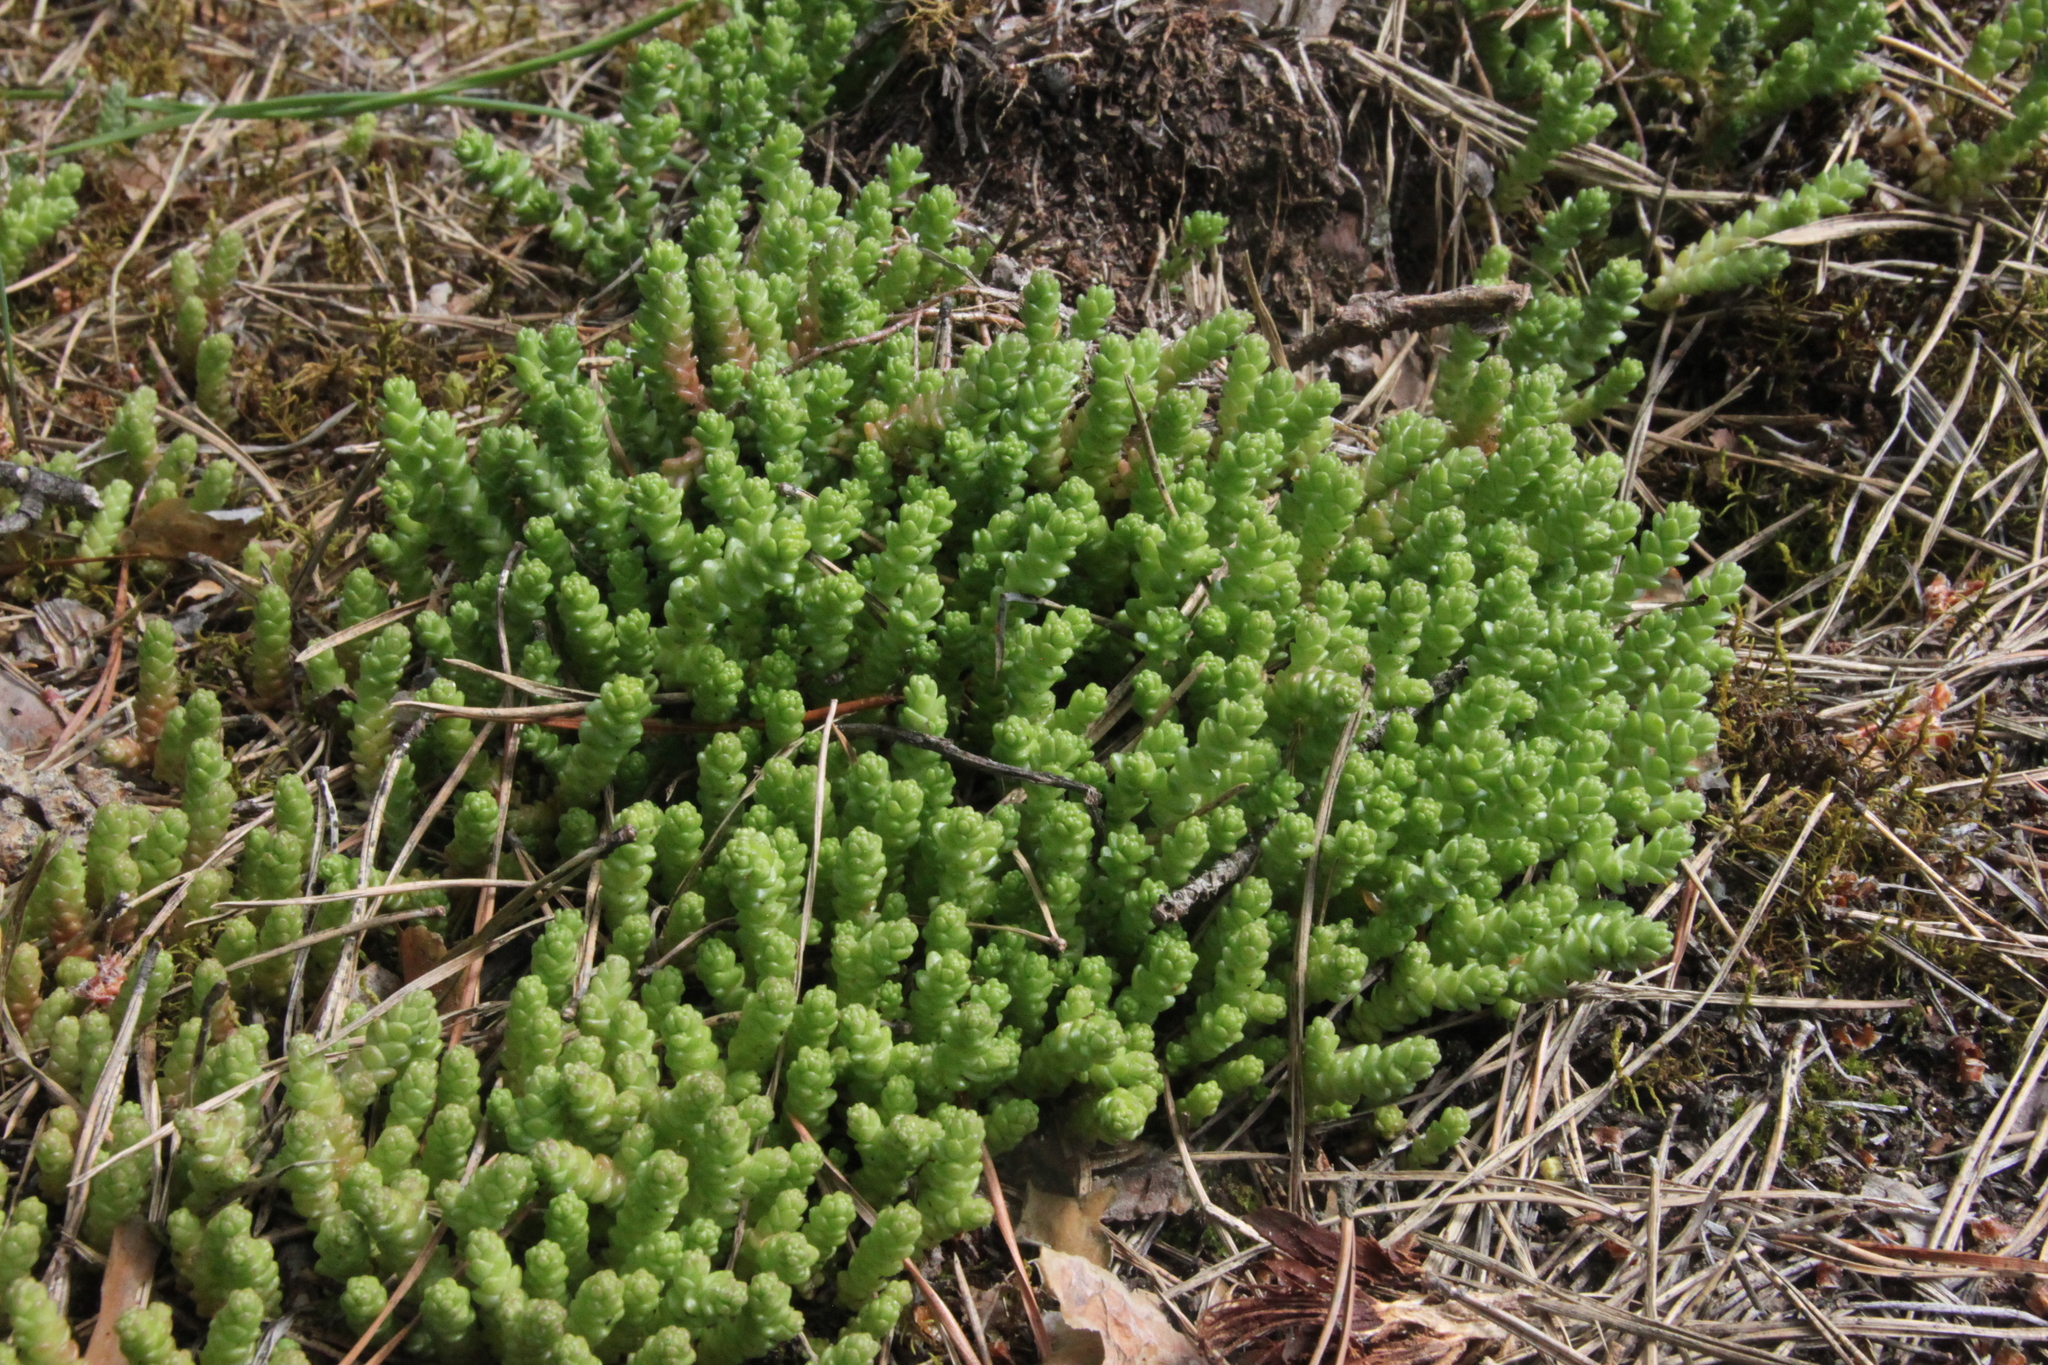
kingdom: Plantae
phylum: Tracheophyta
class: Magnoliopsida
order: Saxifragales
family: Crassulaceae
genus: Sedum
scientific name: Sedum acre
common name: Biting stonecrop
